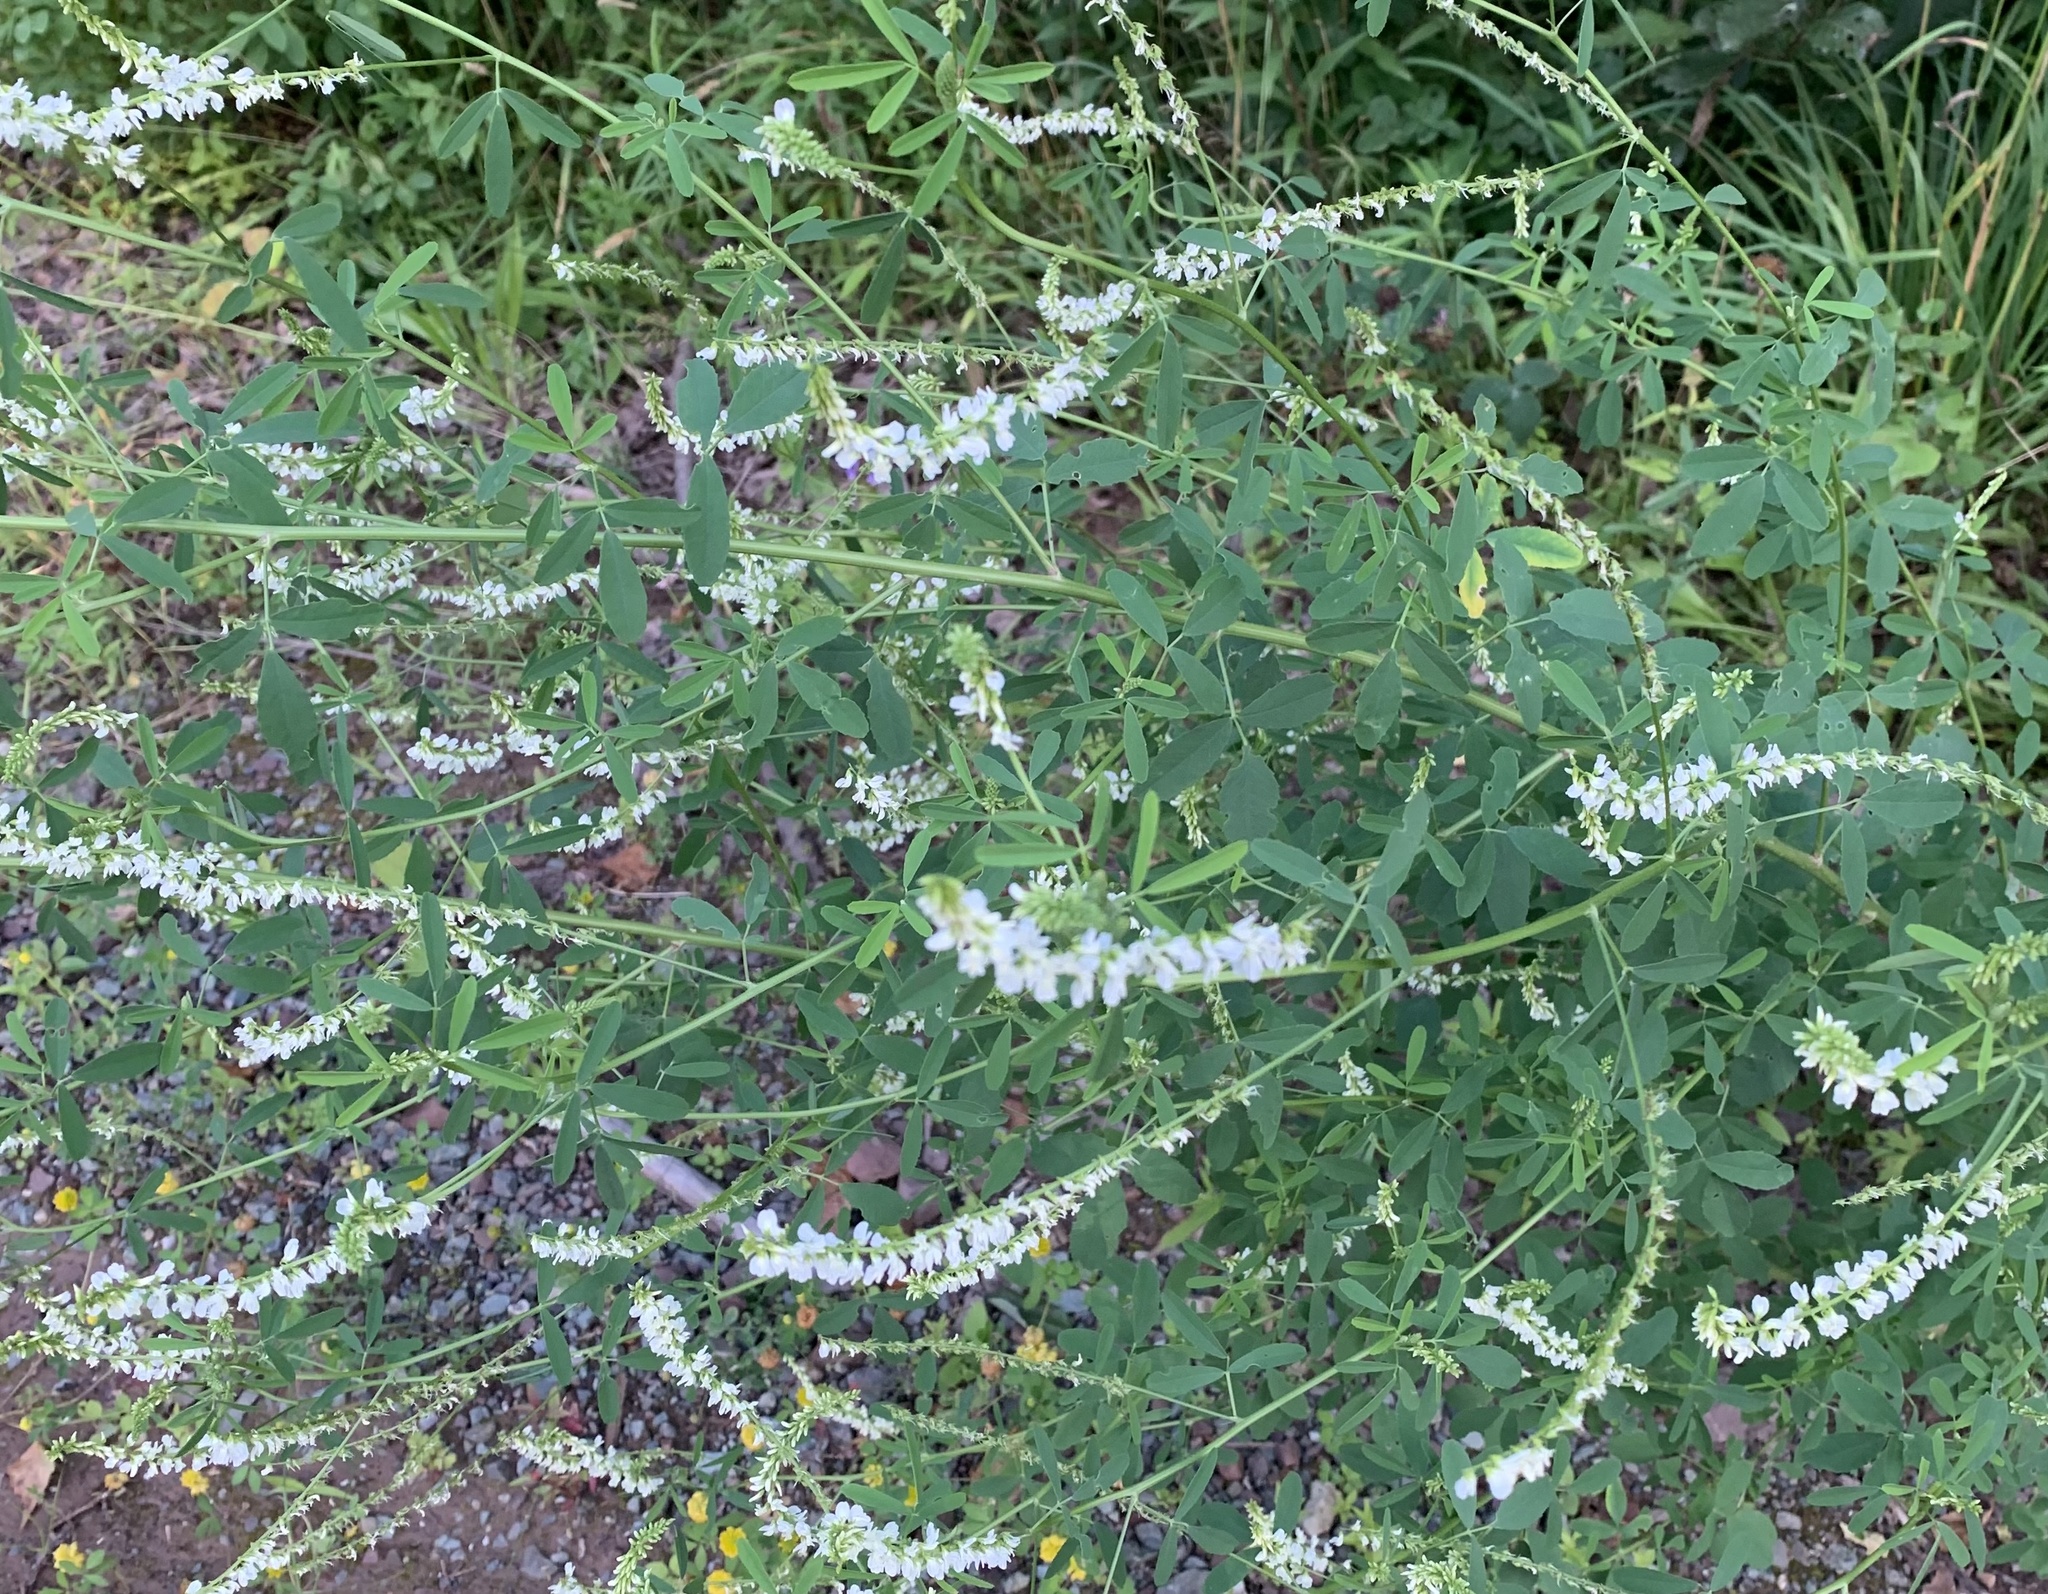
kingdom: Plantae
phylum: Tracheophyta
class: Magnoliopsida
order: Fabales
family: Fabaceae
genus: Melilotus
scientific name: Melilotus albus
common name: White melilot
